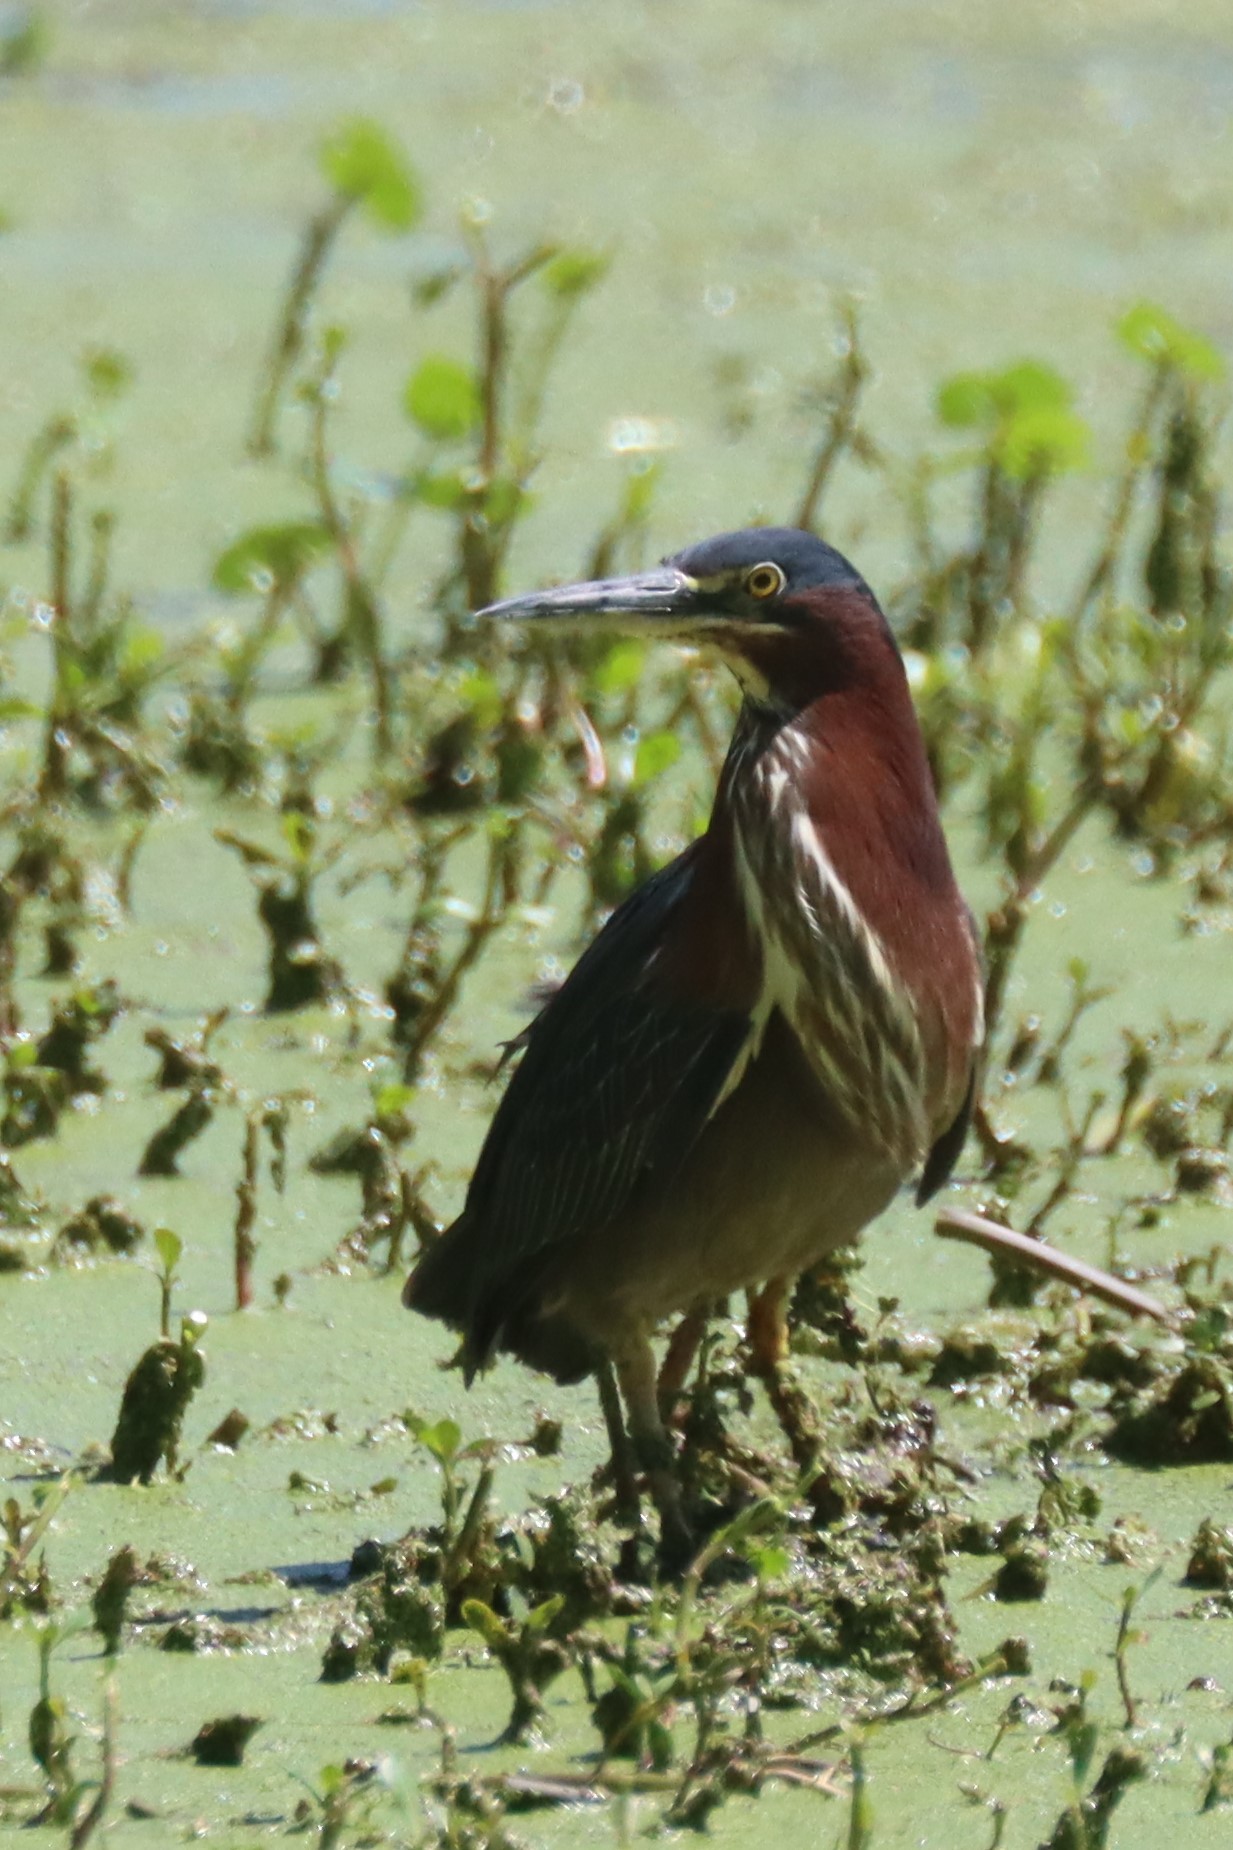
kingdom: Animalia
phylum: Chordata
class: Aves
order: Pelecaniformes
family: Ardeidae
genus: Butorides
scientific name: Butorides virescens
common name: Green heron
